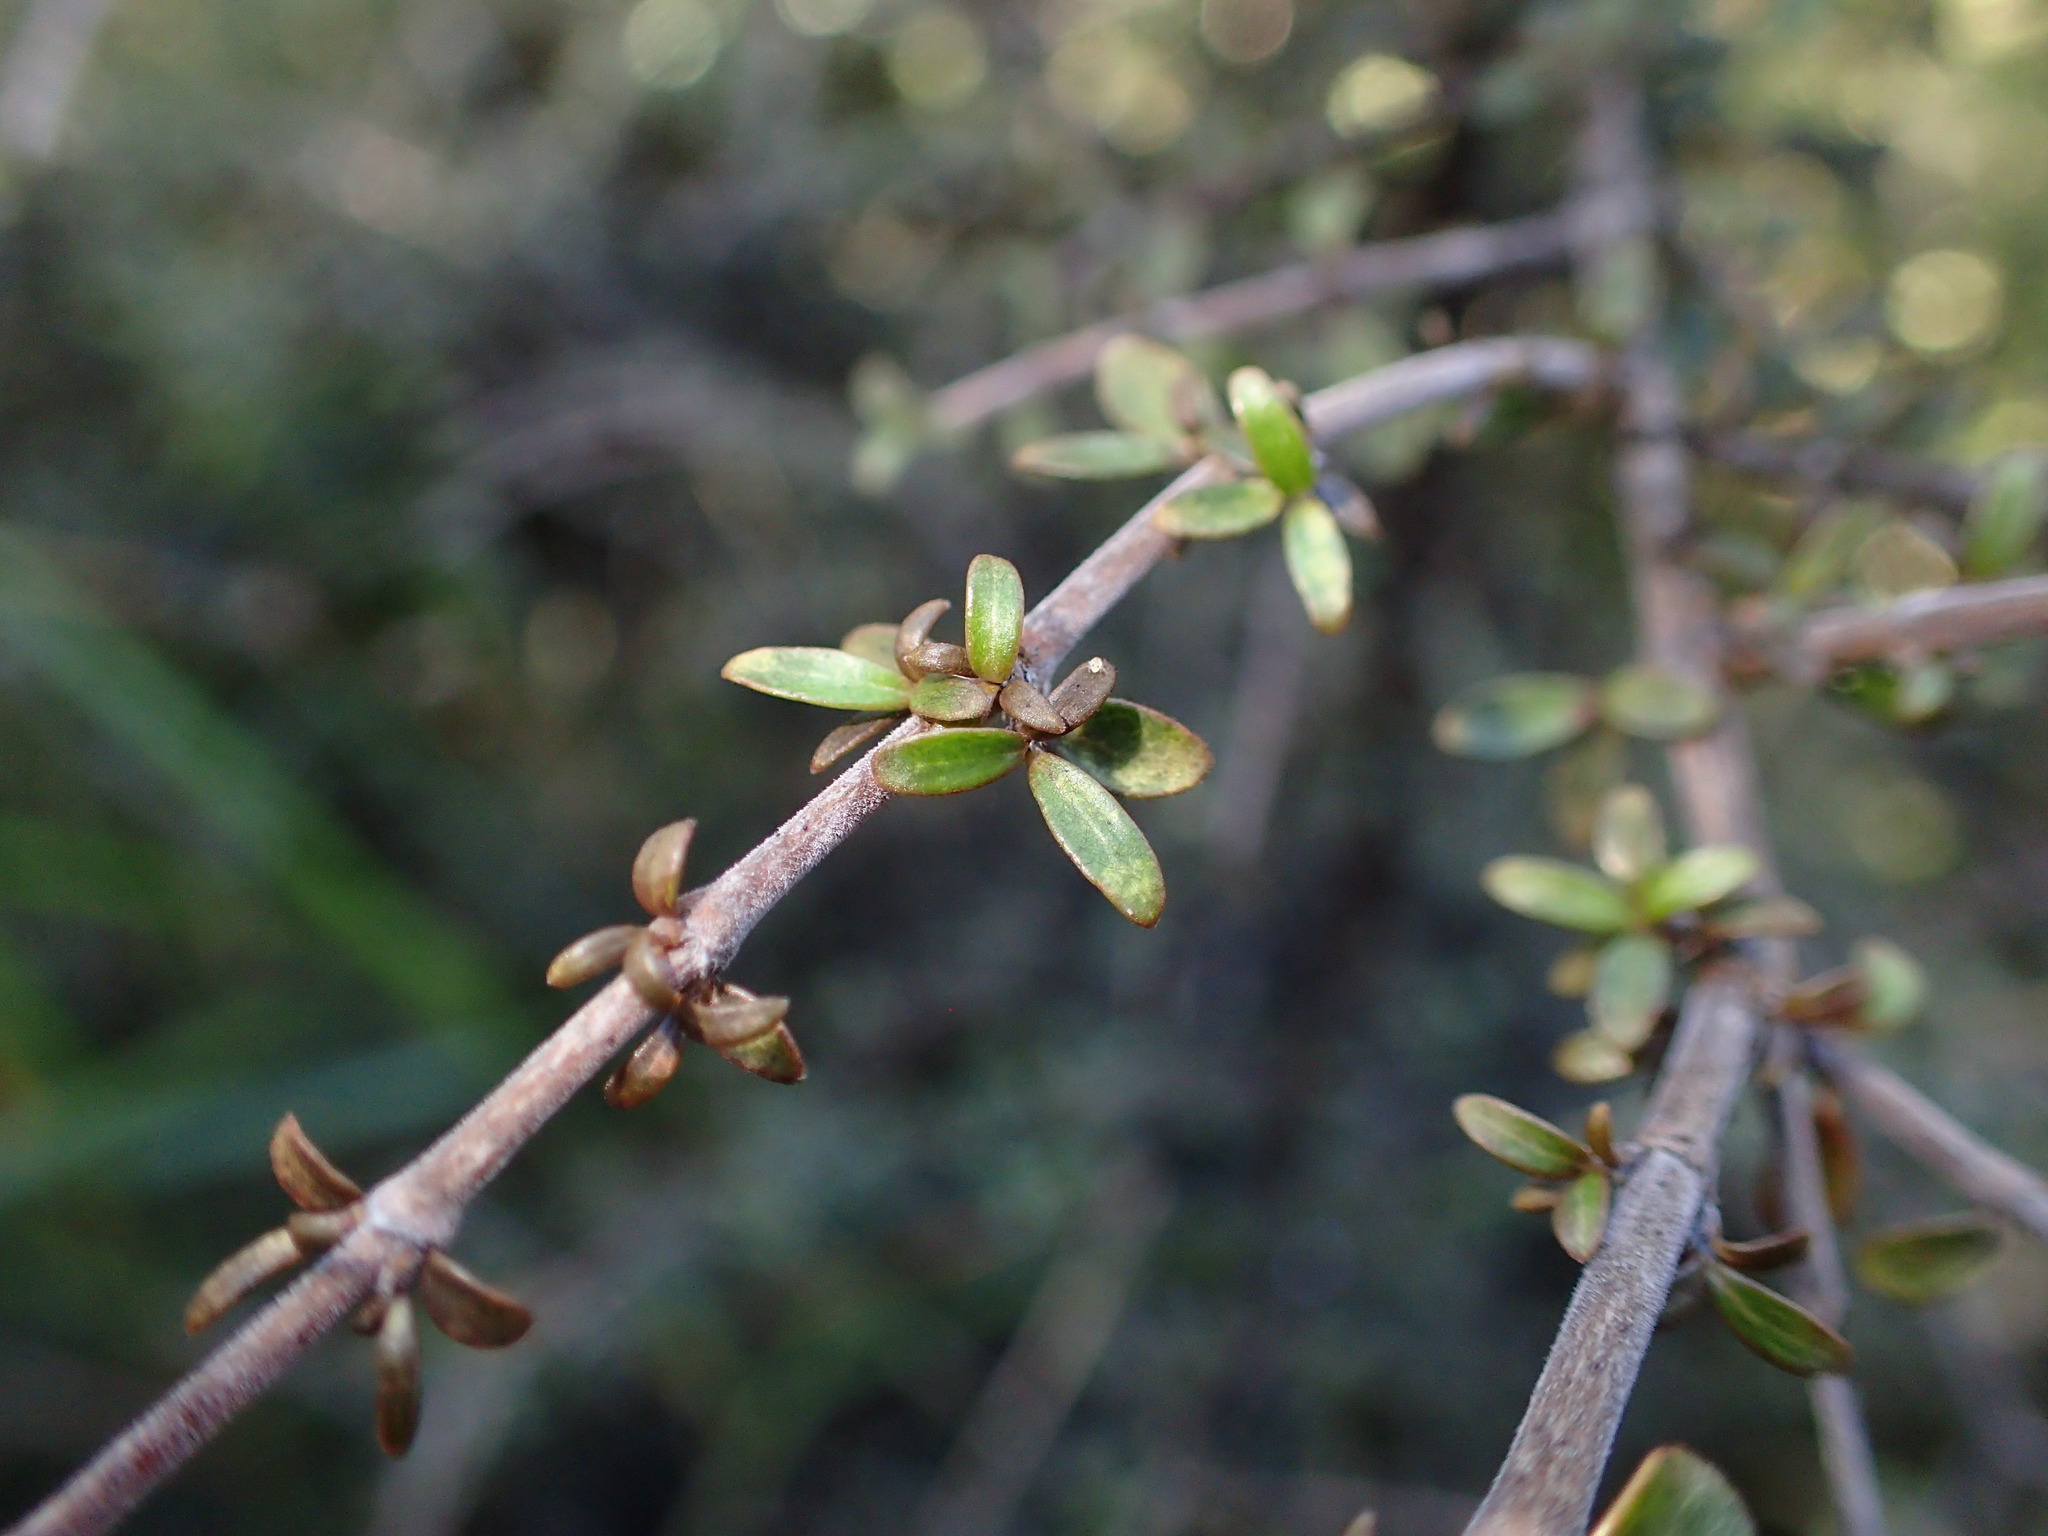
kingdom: Plantae
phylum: Tracheophyta
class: Magnoliopsida
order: Gentianales
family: Rubiaceae
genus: Coprosma
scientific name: Coprosma dumosa
